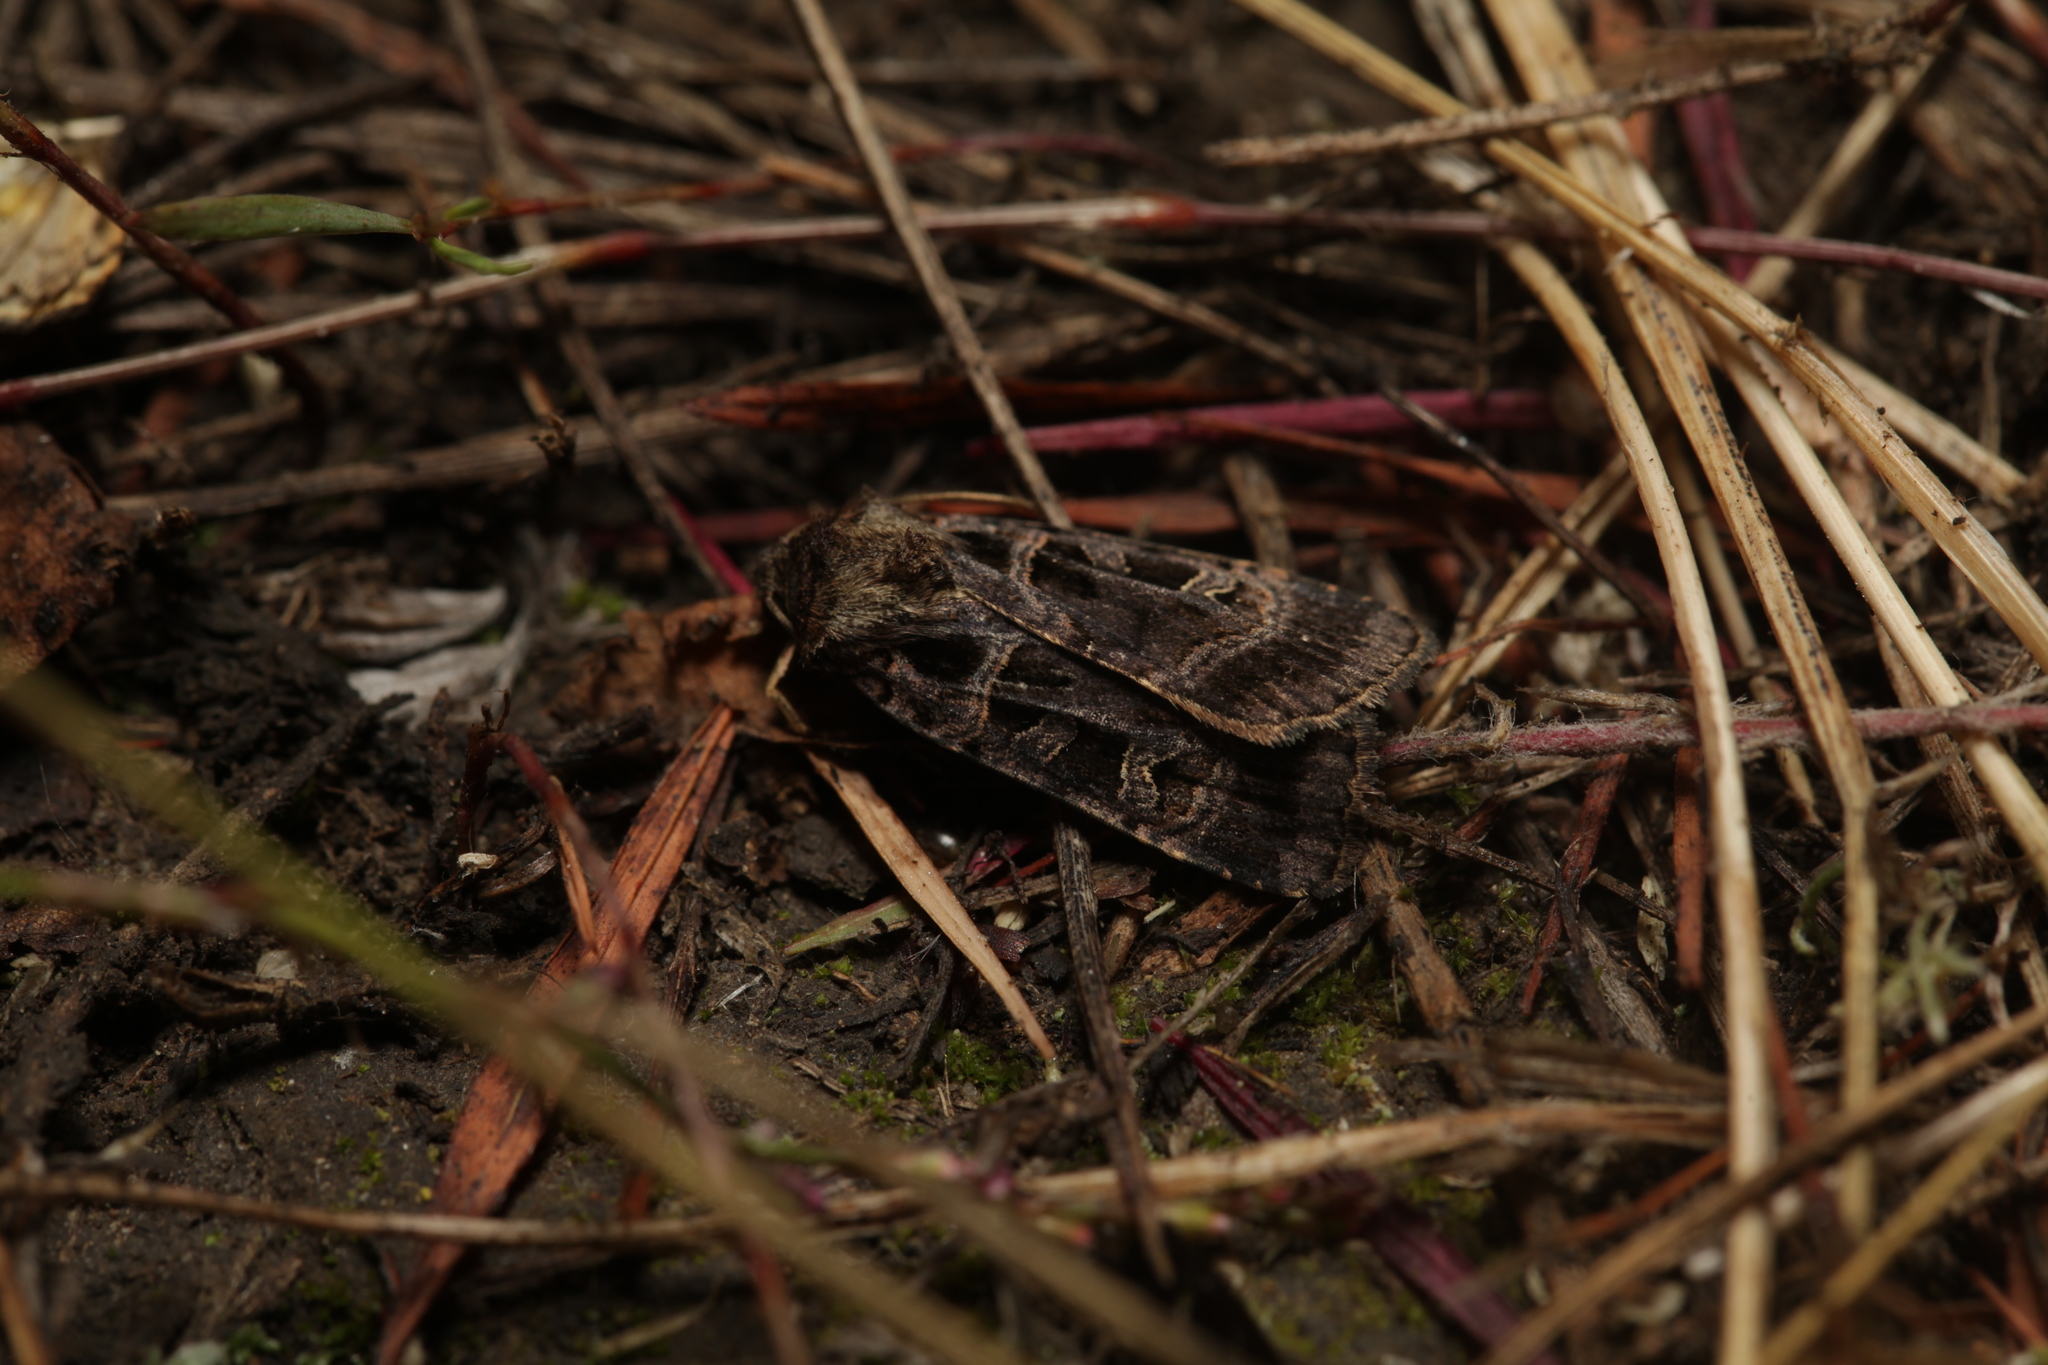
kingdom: Animalia
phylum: Arthropoda
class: Insecta
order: Lepidoptera
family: Noctuidae
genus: Pseudohermonassa
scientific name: Pseudohermonassa melancholica
